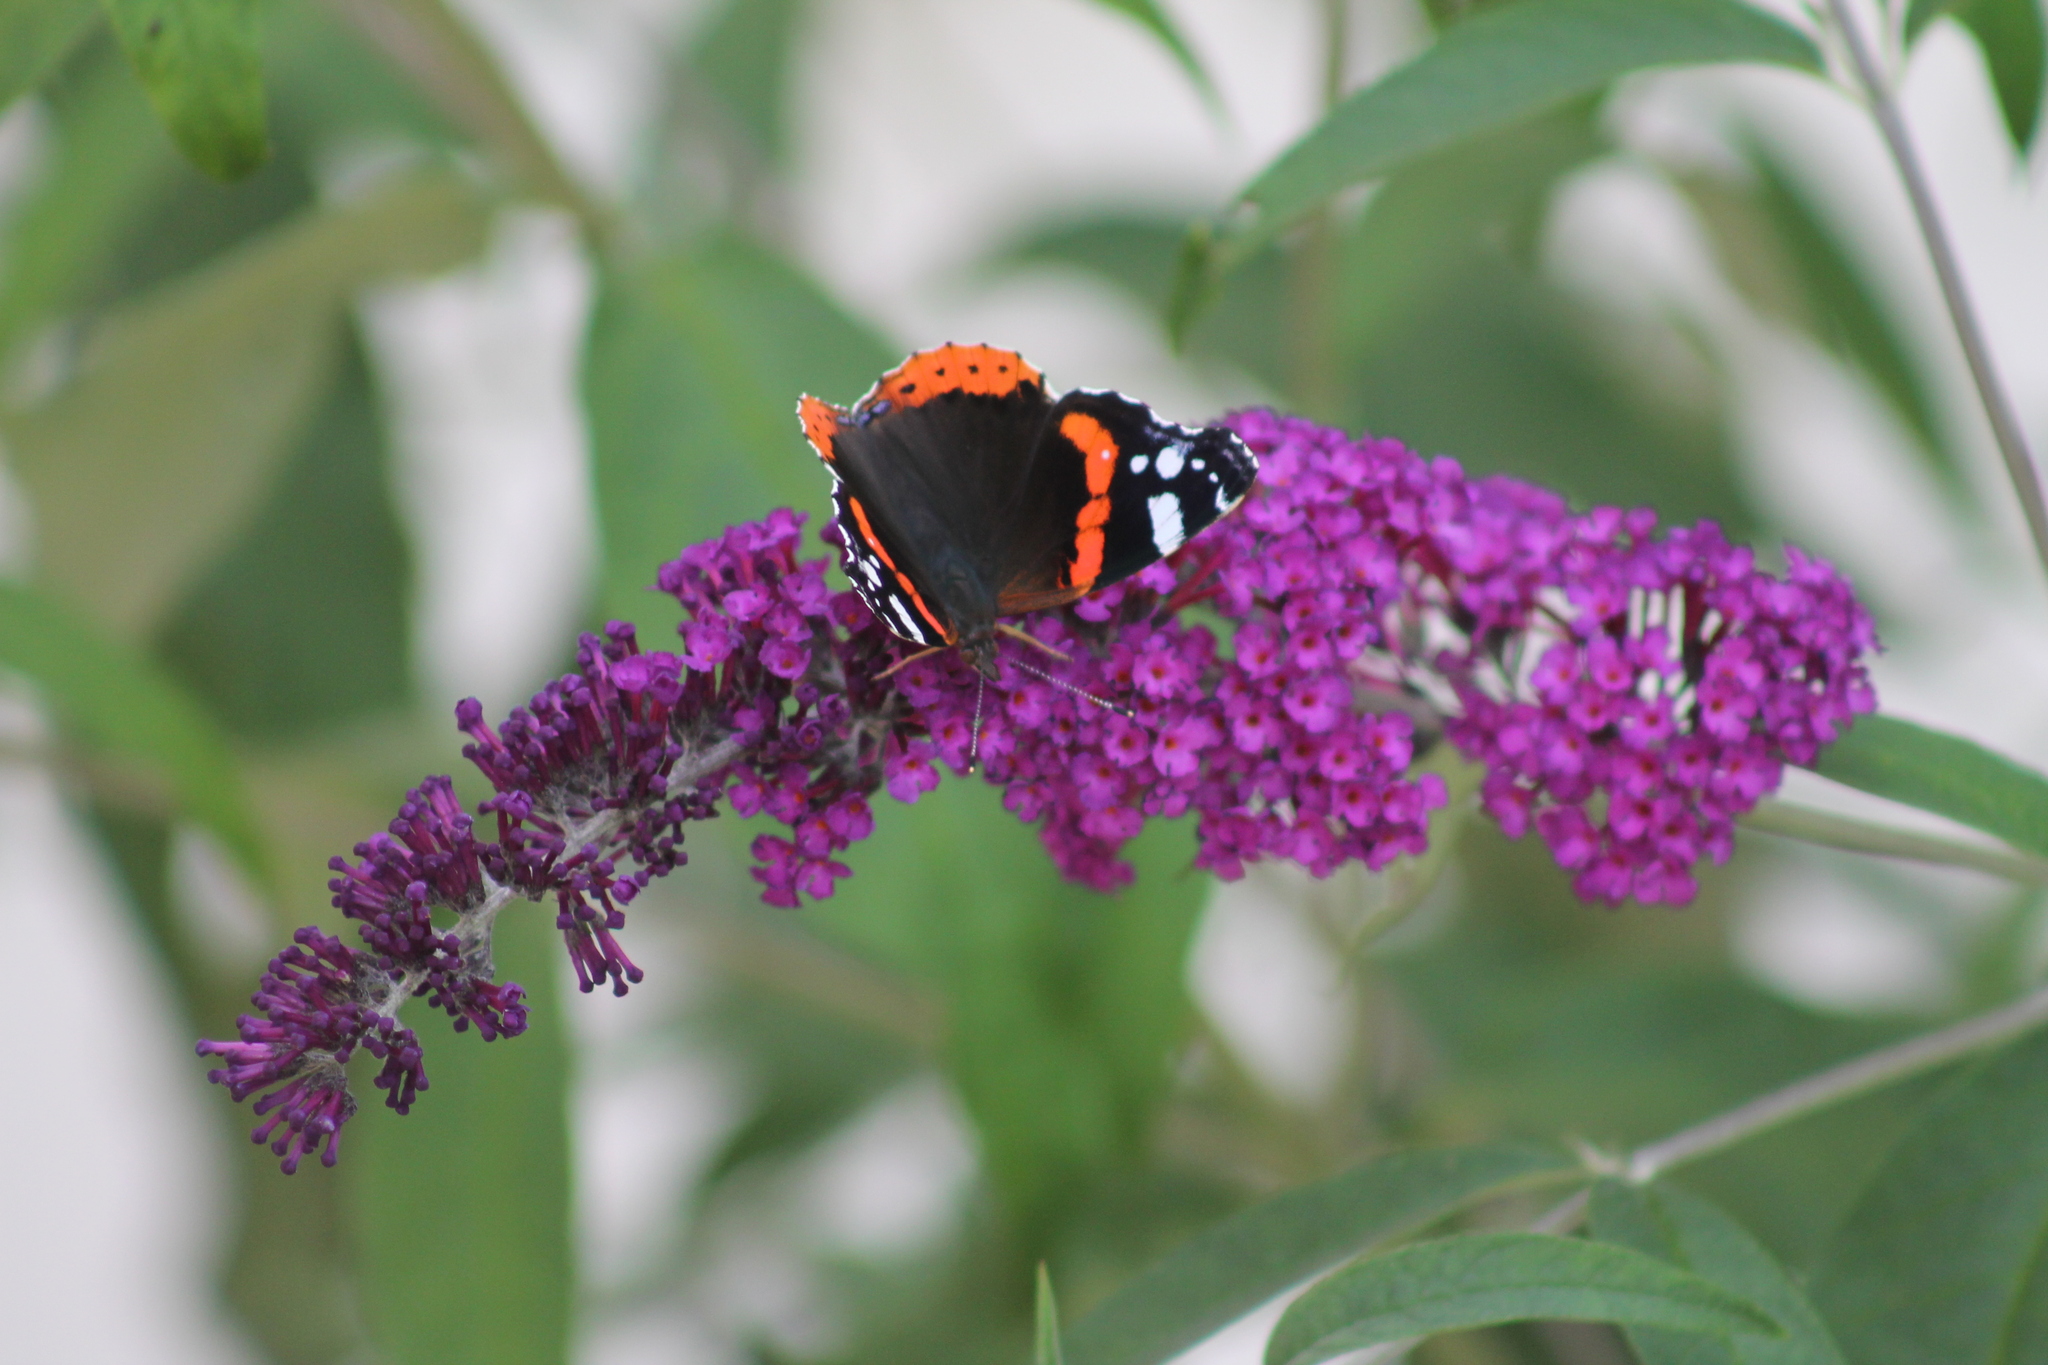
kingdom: Animalia
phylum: Arthropoda
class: Insecta
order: Lepidoptera
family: Nymphalidae
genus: Vanessa
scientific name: Vanessa atalanta
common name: Red admiral
